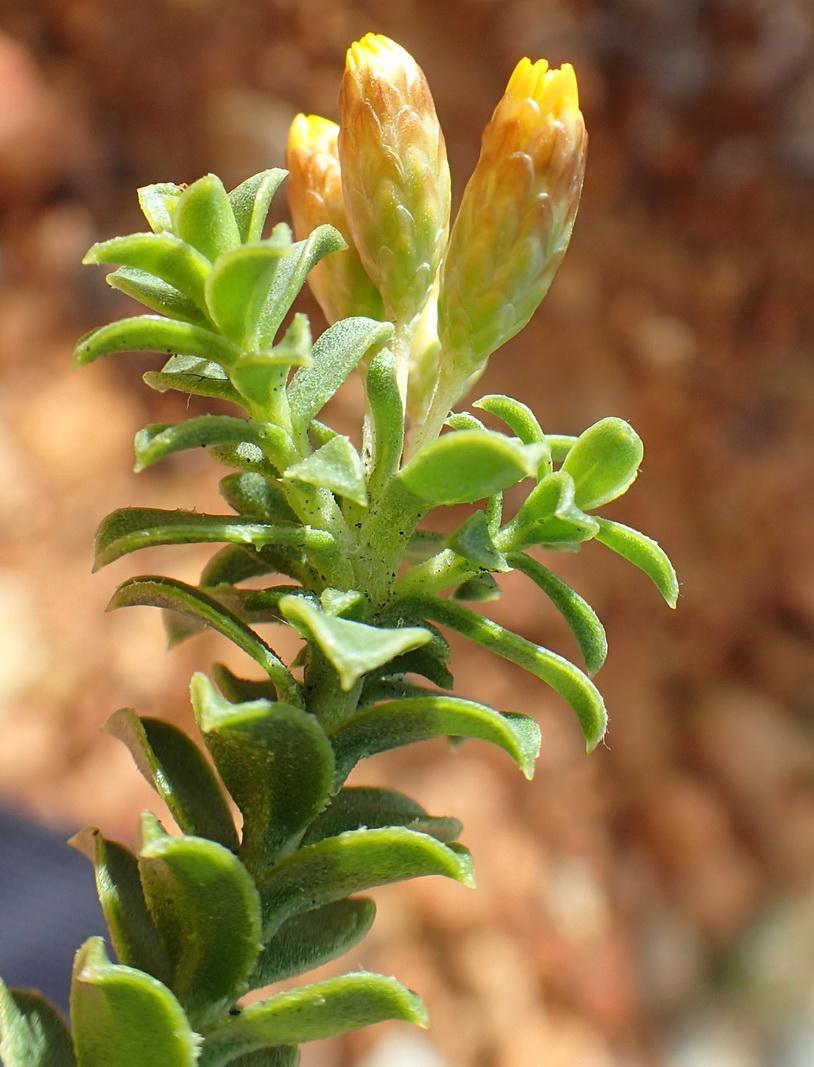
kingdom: Plantae
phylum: Tracheophyta
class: Magnoliopsida
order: Asterales
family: Asteraceae
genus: Oedera
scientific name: Oedera squarrosa
